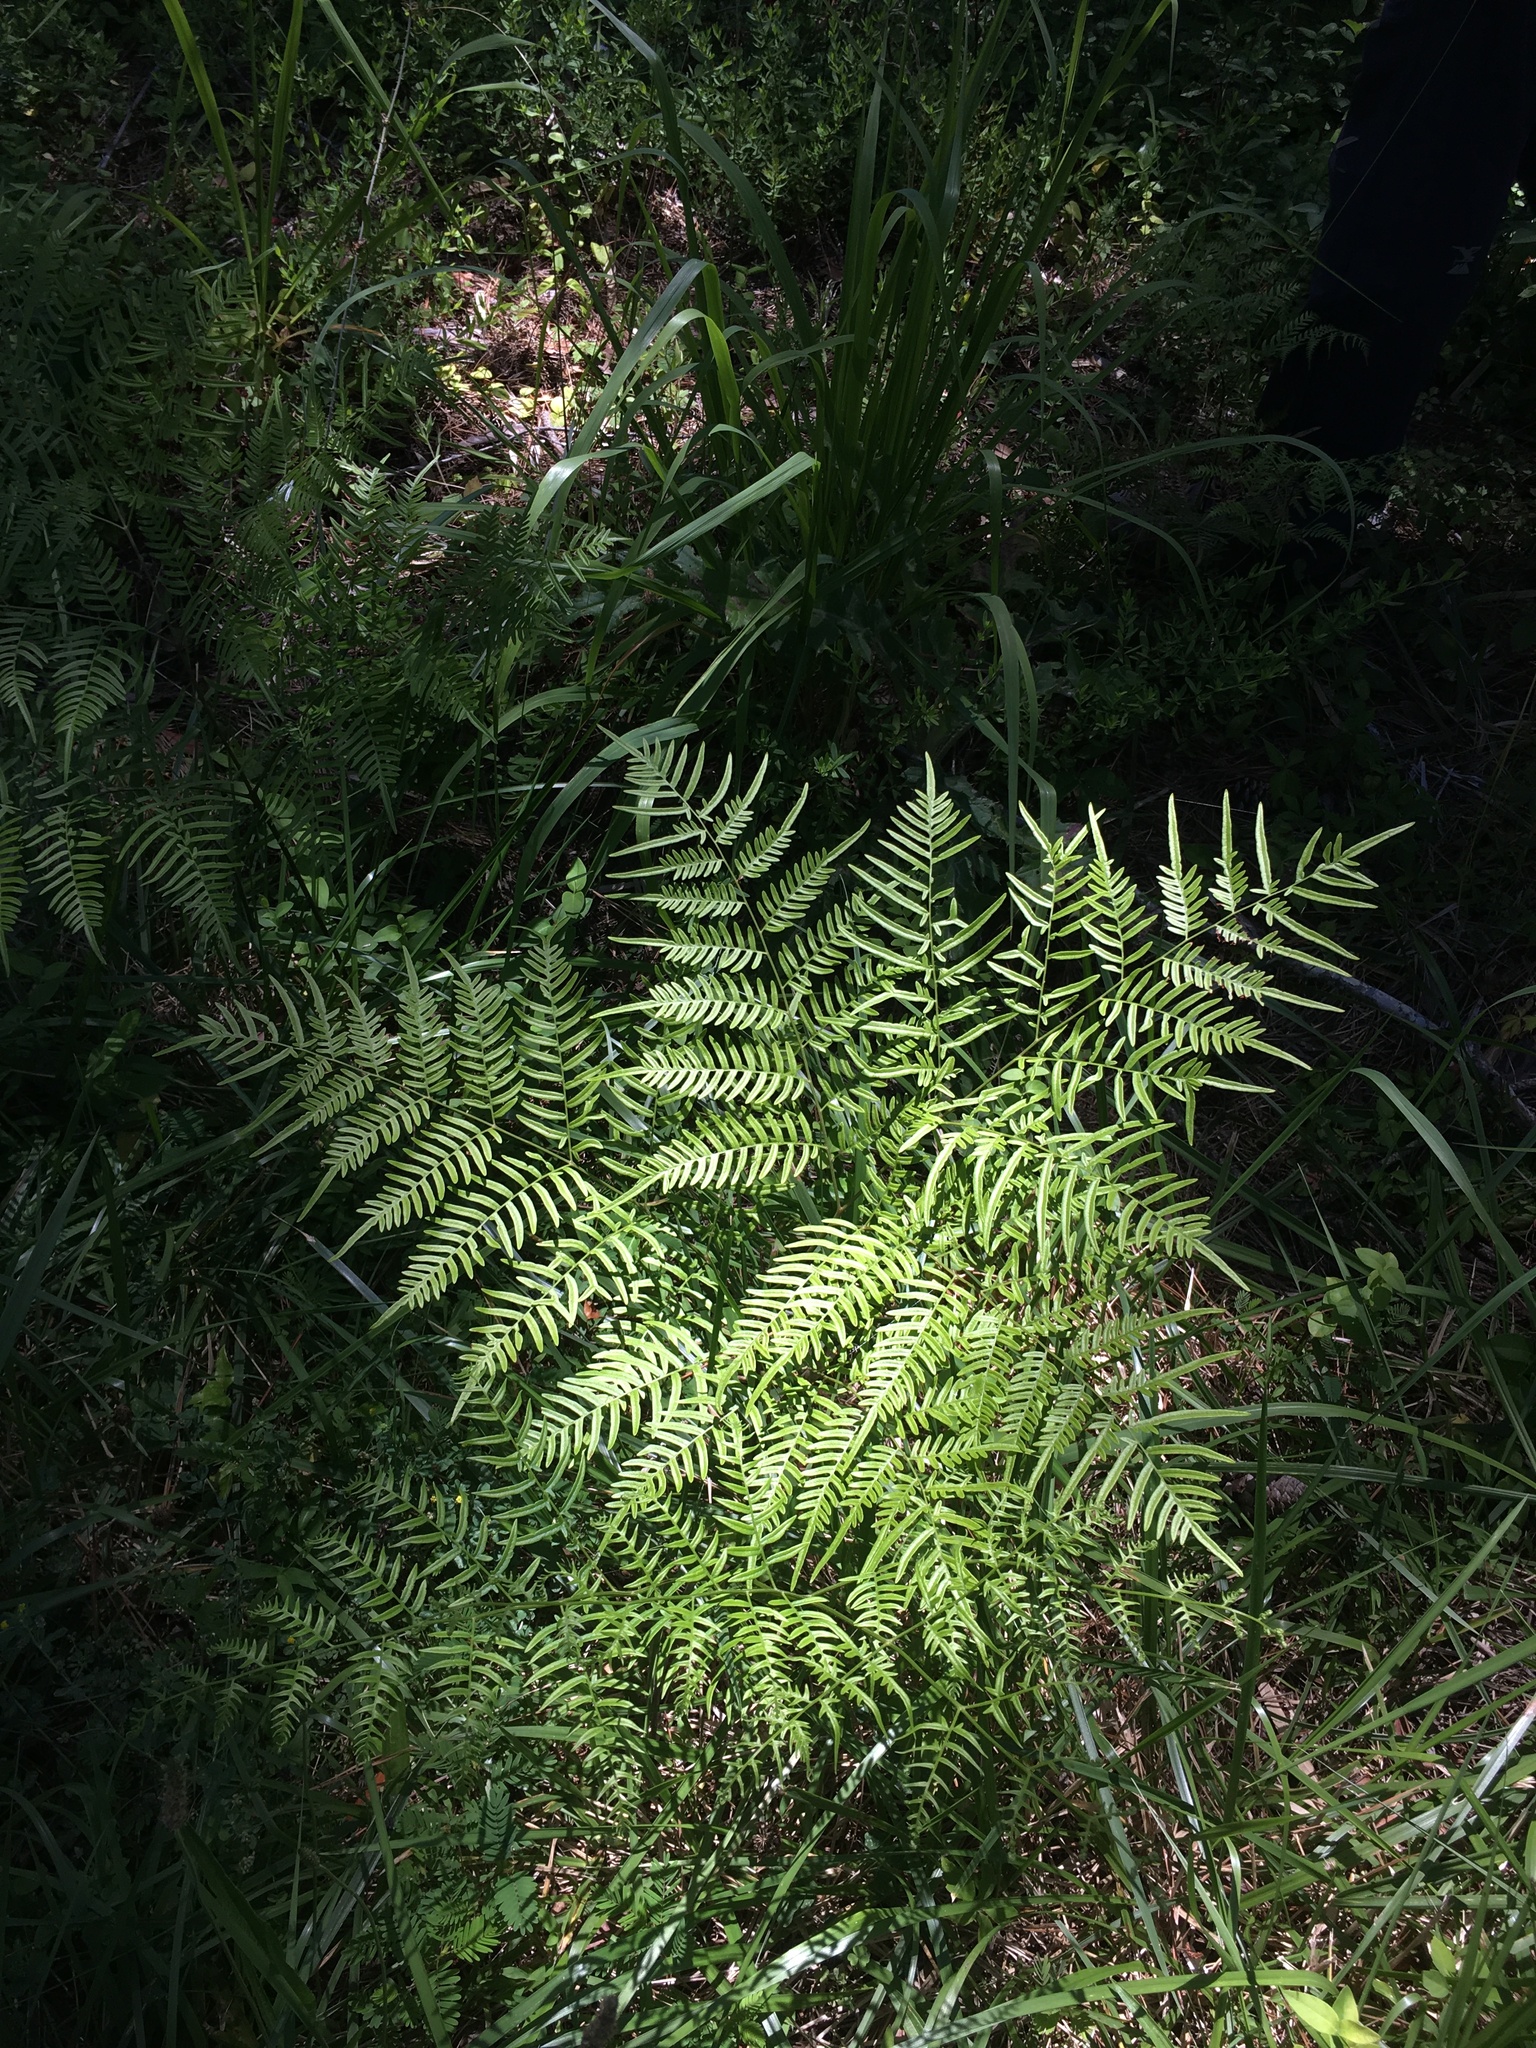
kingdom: Plantae
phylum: Tracheophyta
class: Polypodiopsida
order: Polypodiales
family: Dennstaedtiaceae
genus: Pteridium
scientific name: Pteridium aquilinum
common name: Bracken
